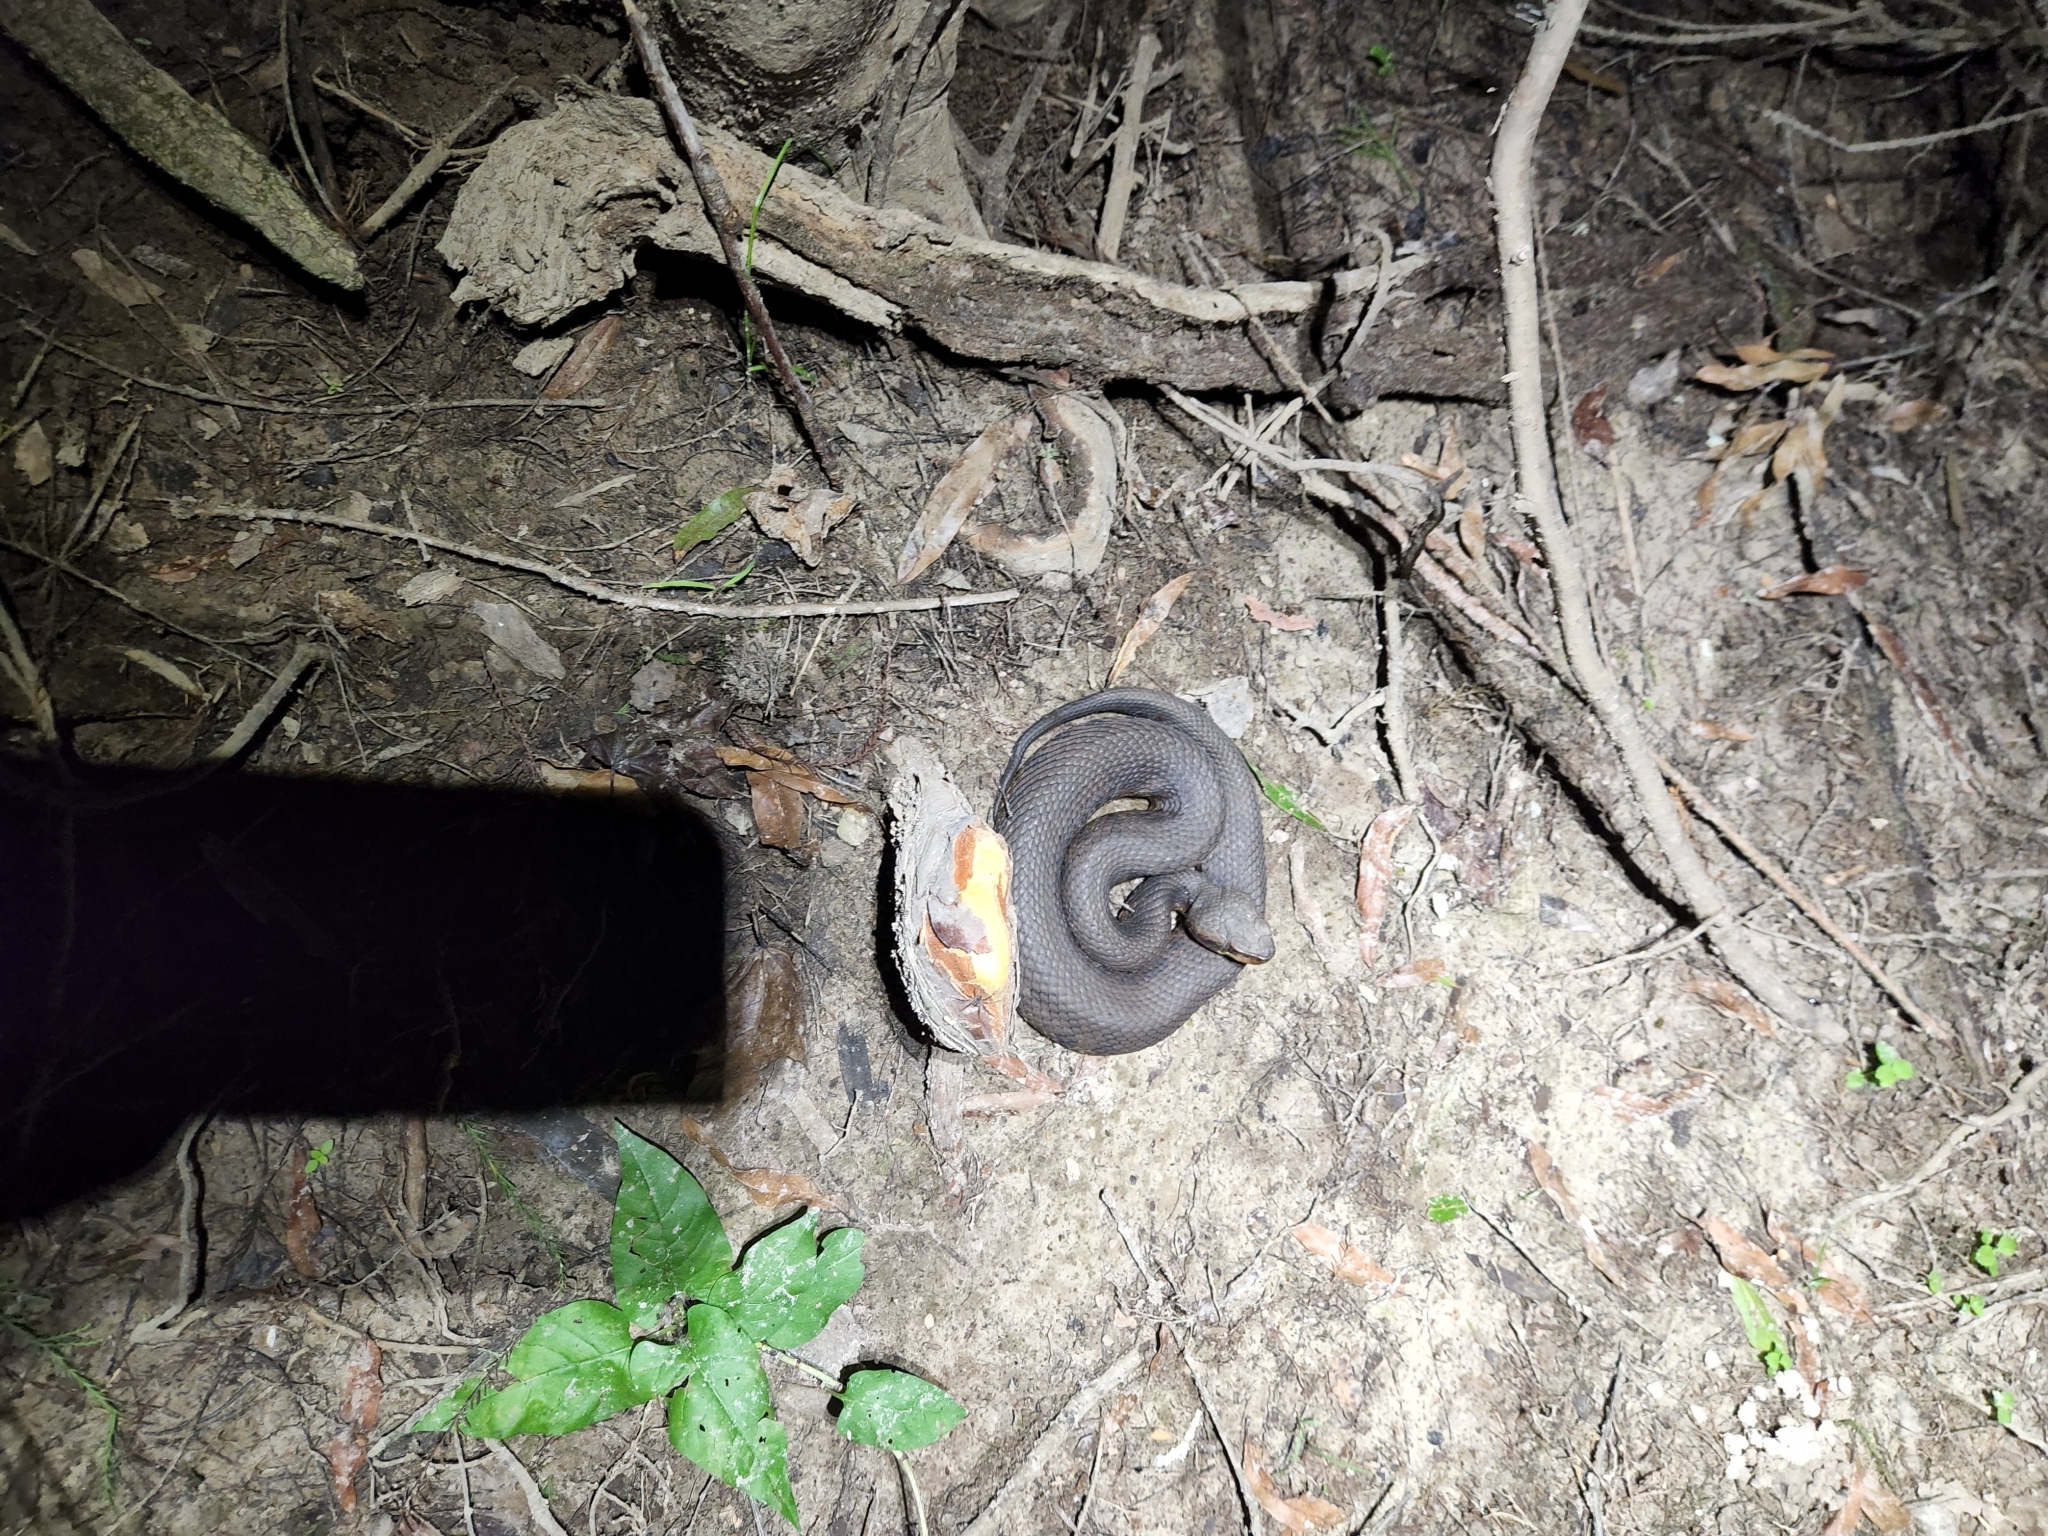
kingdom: Animalia
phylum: Chordata
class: Squamata
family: Viperidae
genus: Agkistrodon
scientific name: Agkistrodon piscivorus
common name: Cottonmouth
